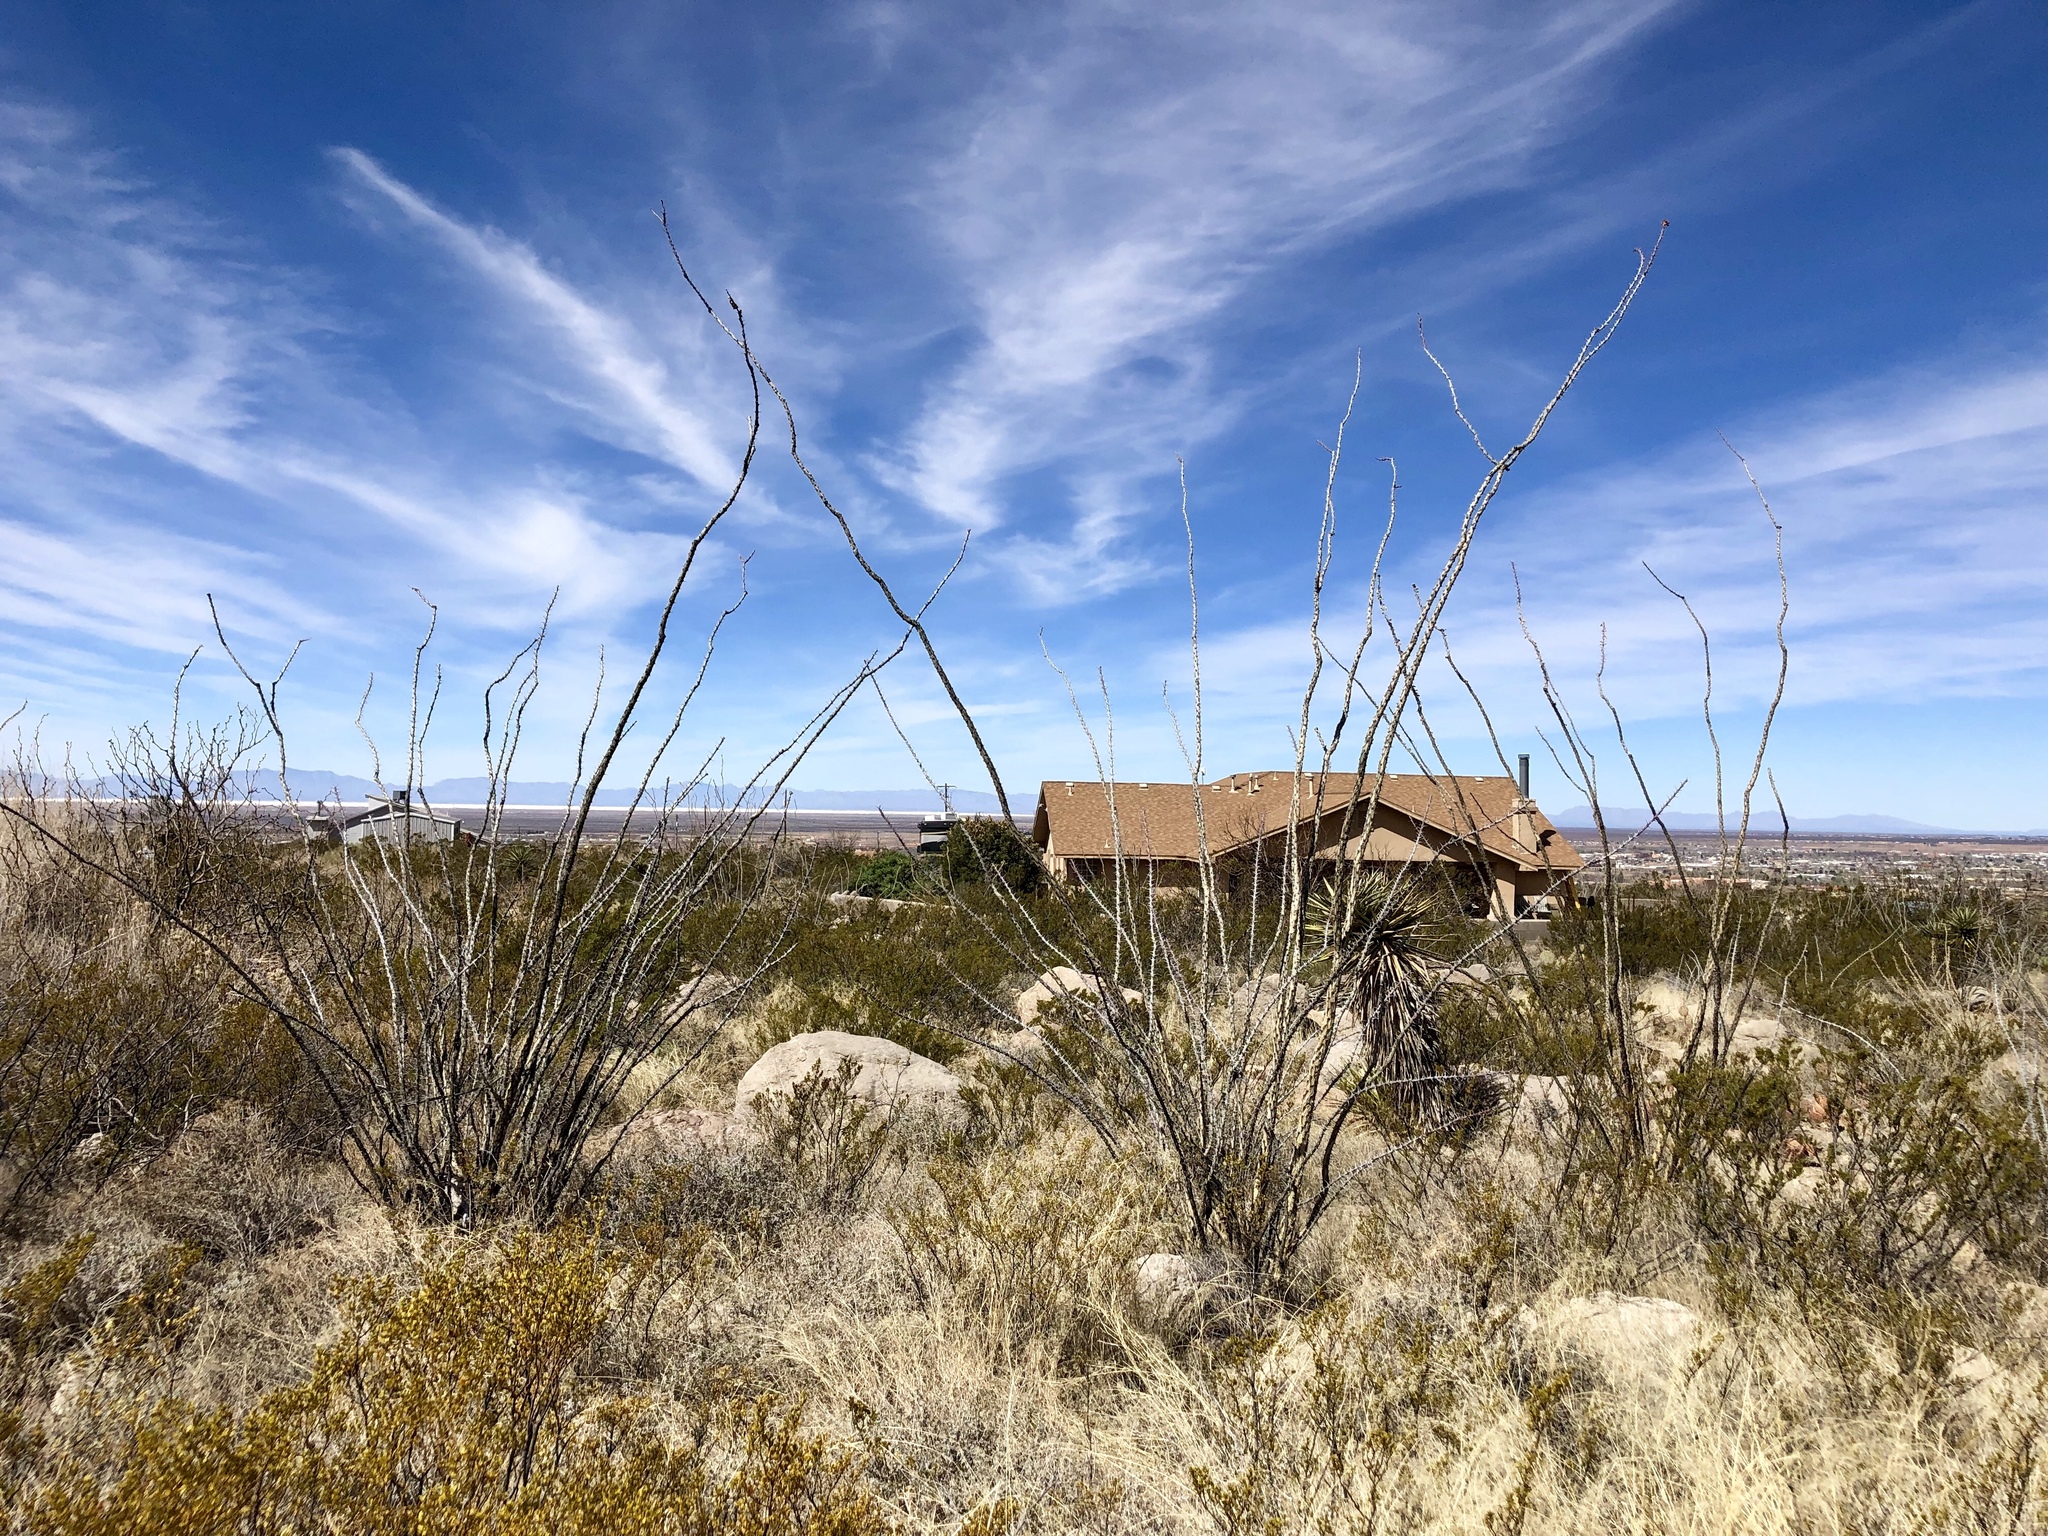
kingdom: Plantae
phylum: Tracheophyta
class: Magnoliopsida
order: Ericales
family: Fouquieriaceae
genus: Fouquieria
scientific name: Fouquieria splendens
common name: Vine-cactus
